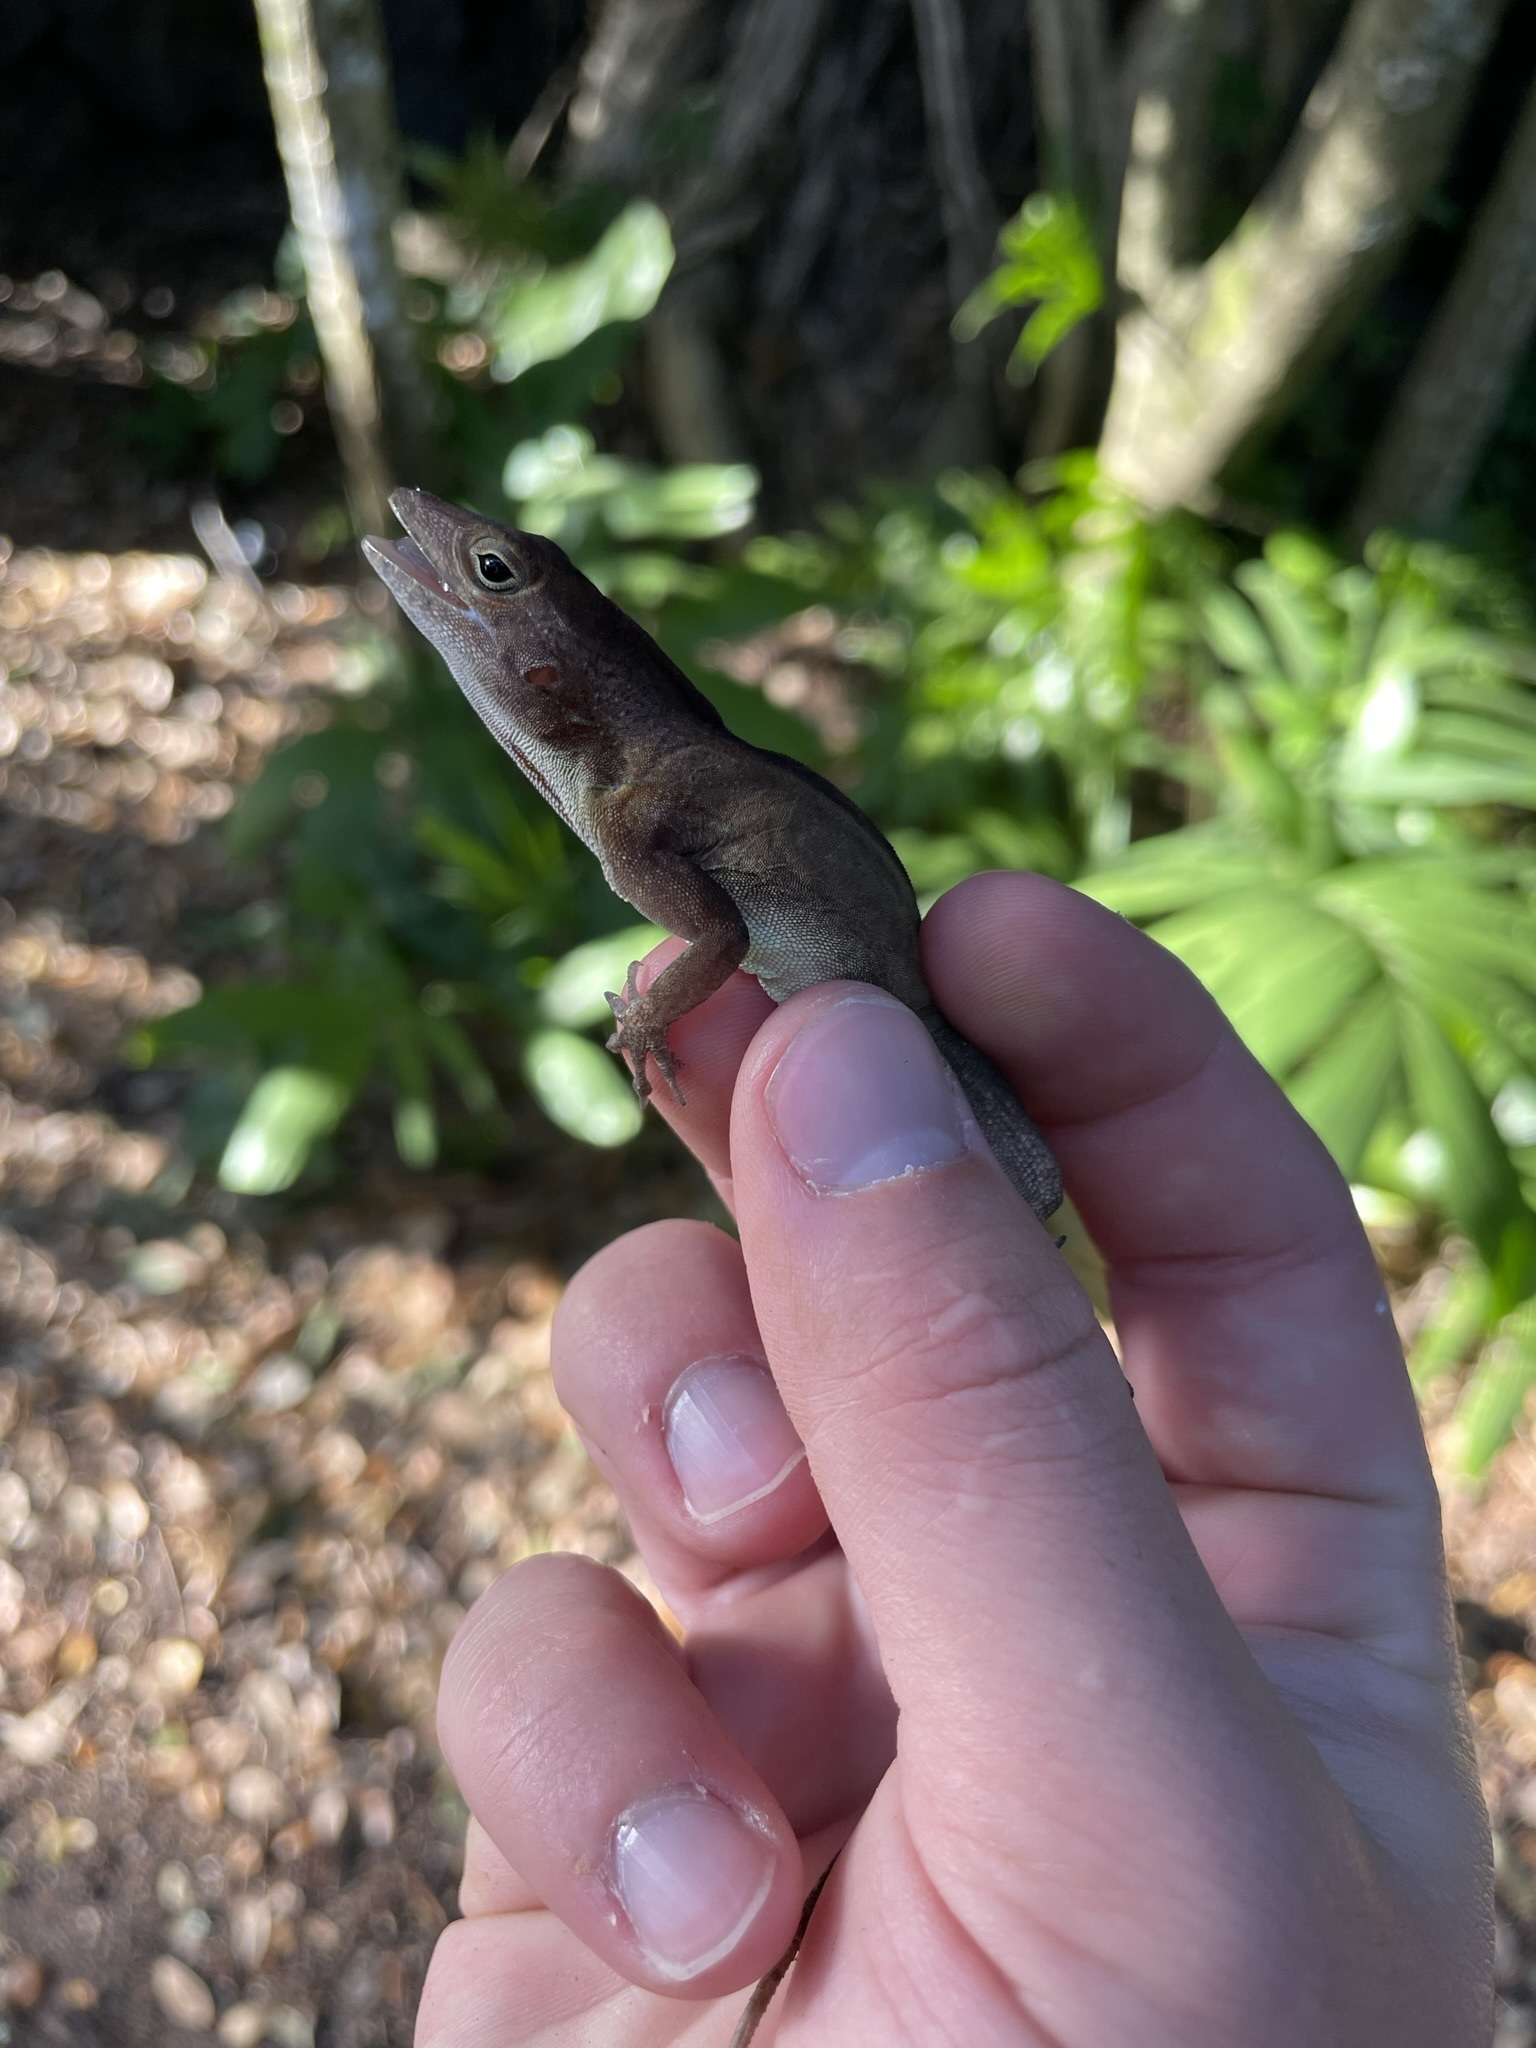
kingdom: Animalia
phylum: Chordata
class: Squamata
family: Dactyloidae
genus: Anolis
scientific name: Anolis cristatellus
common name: Crested anole
